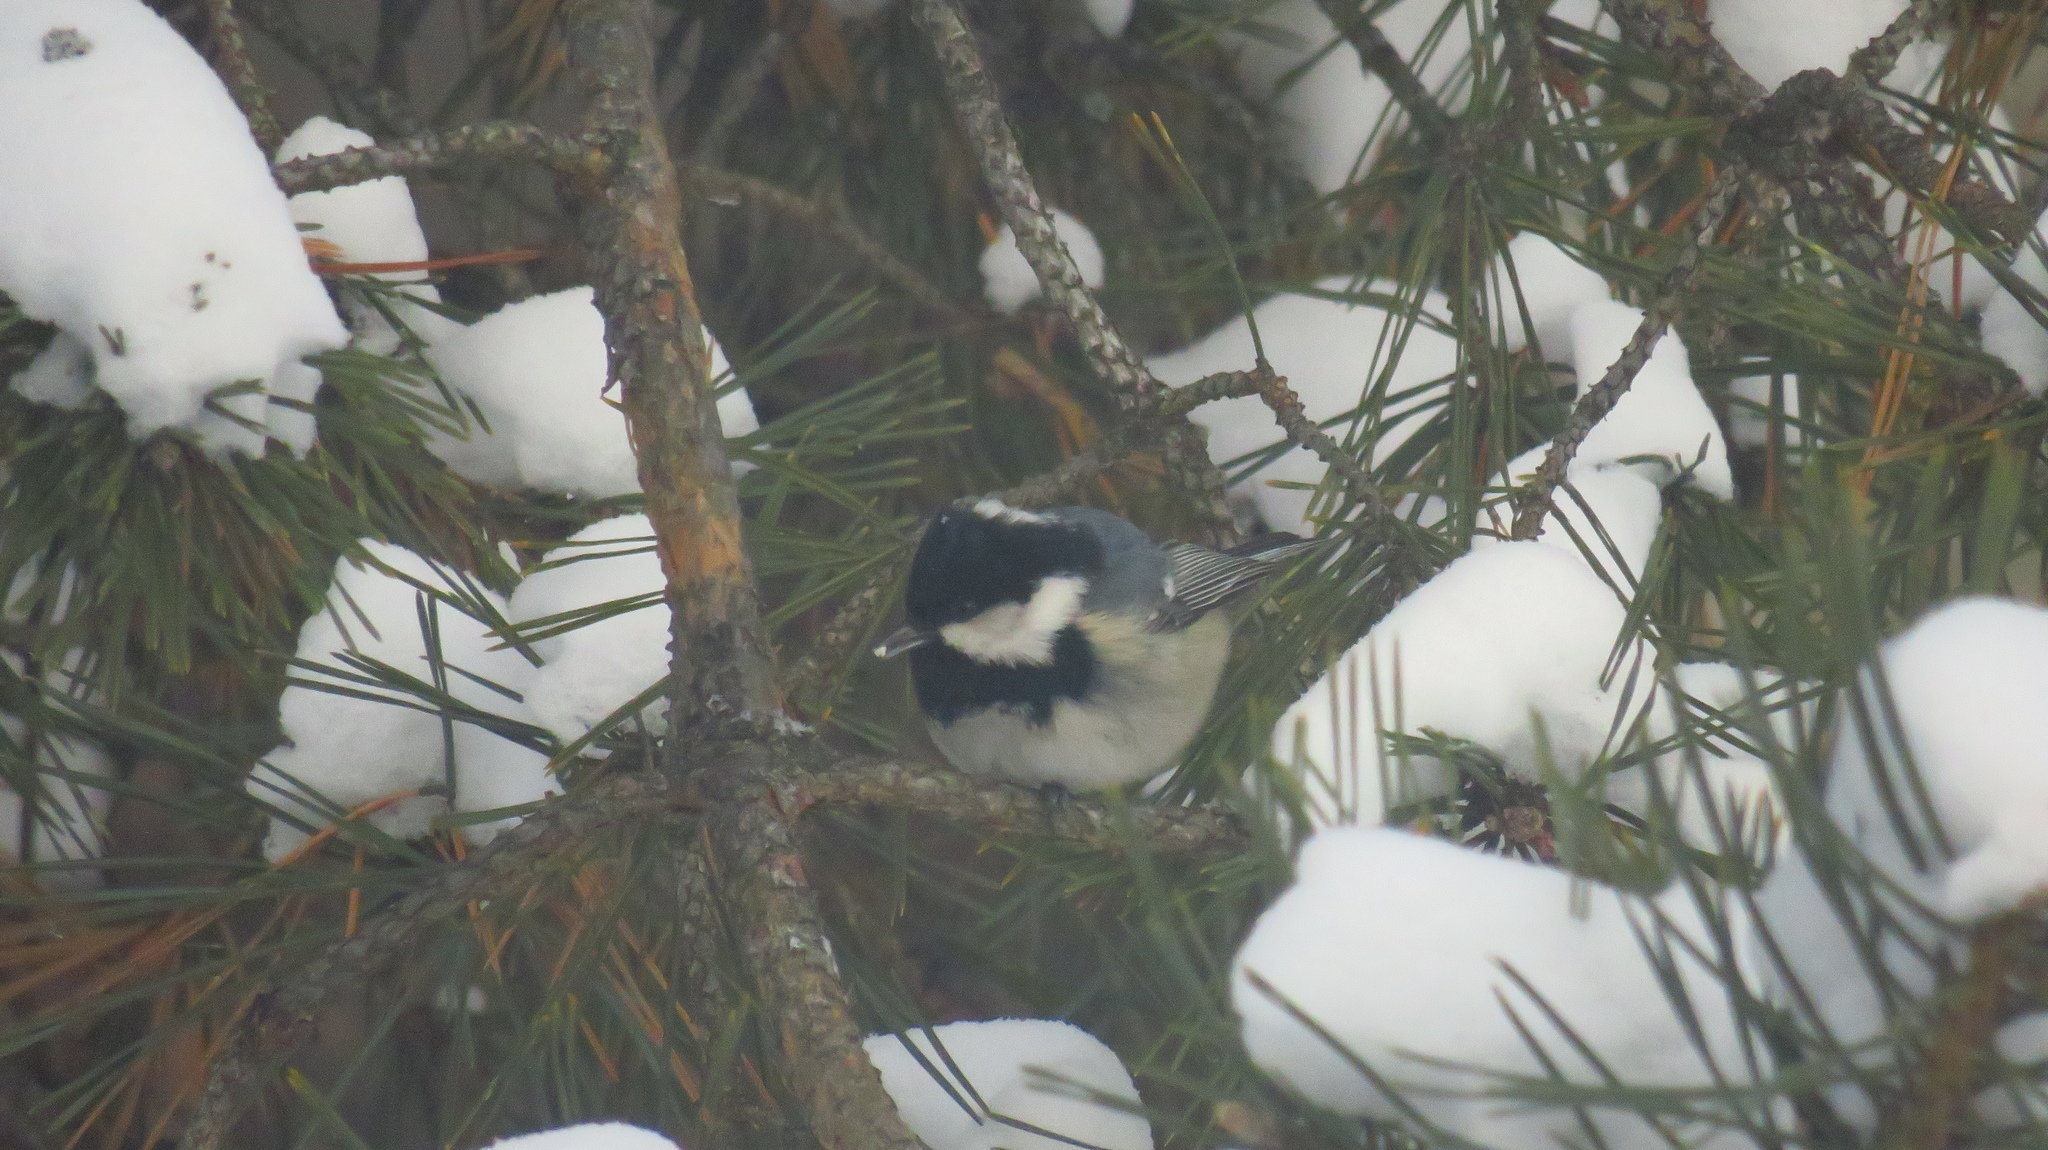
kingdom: Animalia
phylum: Chordata
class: Aves
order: Passeriformes
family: Paridae
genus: Periparus
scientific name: Periparus ater
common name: Coal tit
